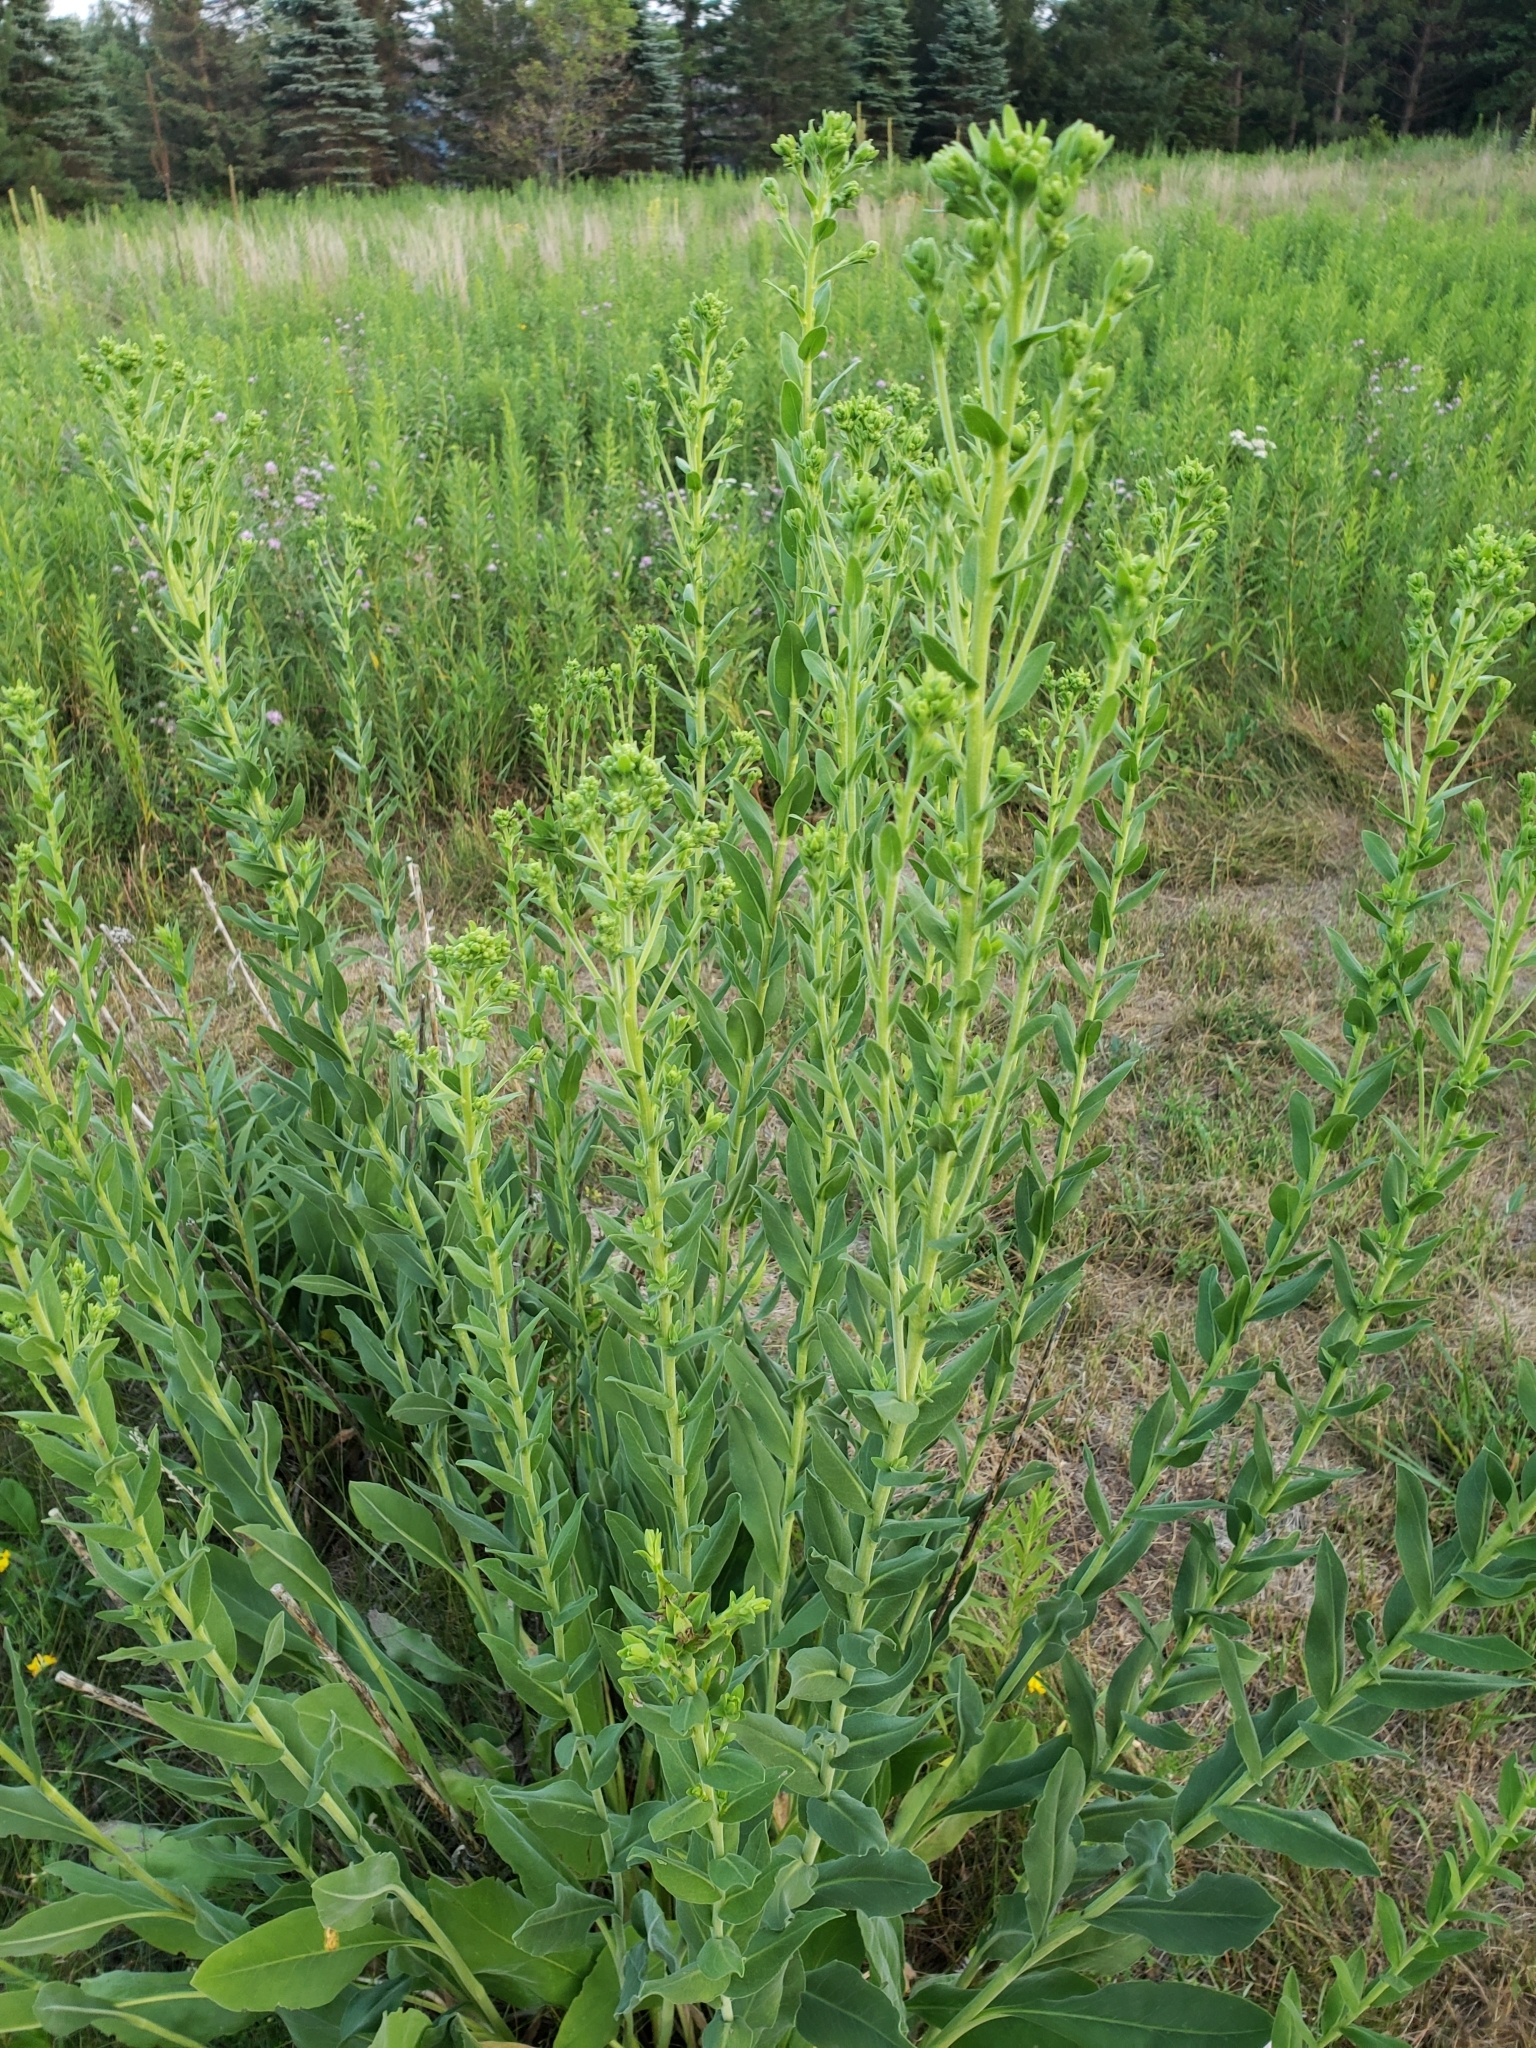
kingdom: Plantae
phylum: Tracheophyta
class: Magnoliopsida
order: Asterales
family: Asteraceae
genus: Solidago
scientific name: Solidago rigida
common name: Rigid goldenrod
